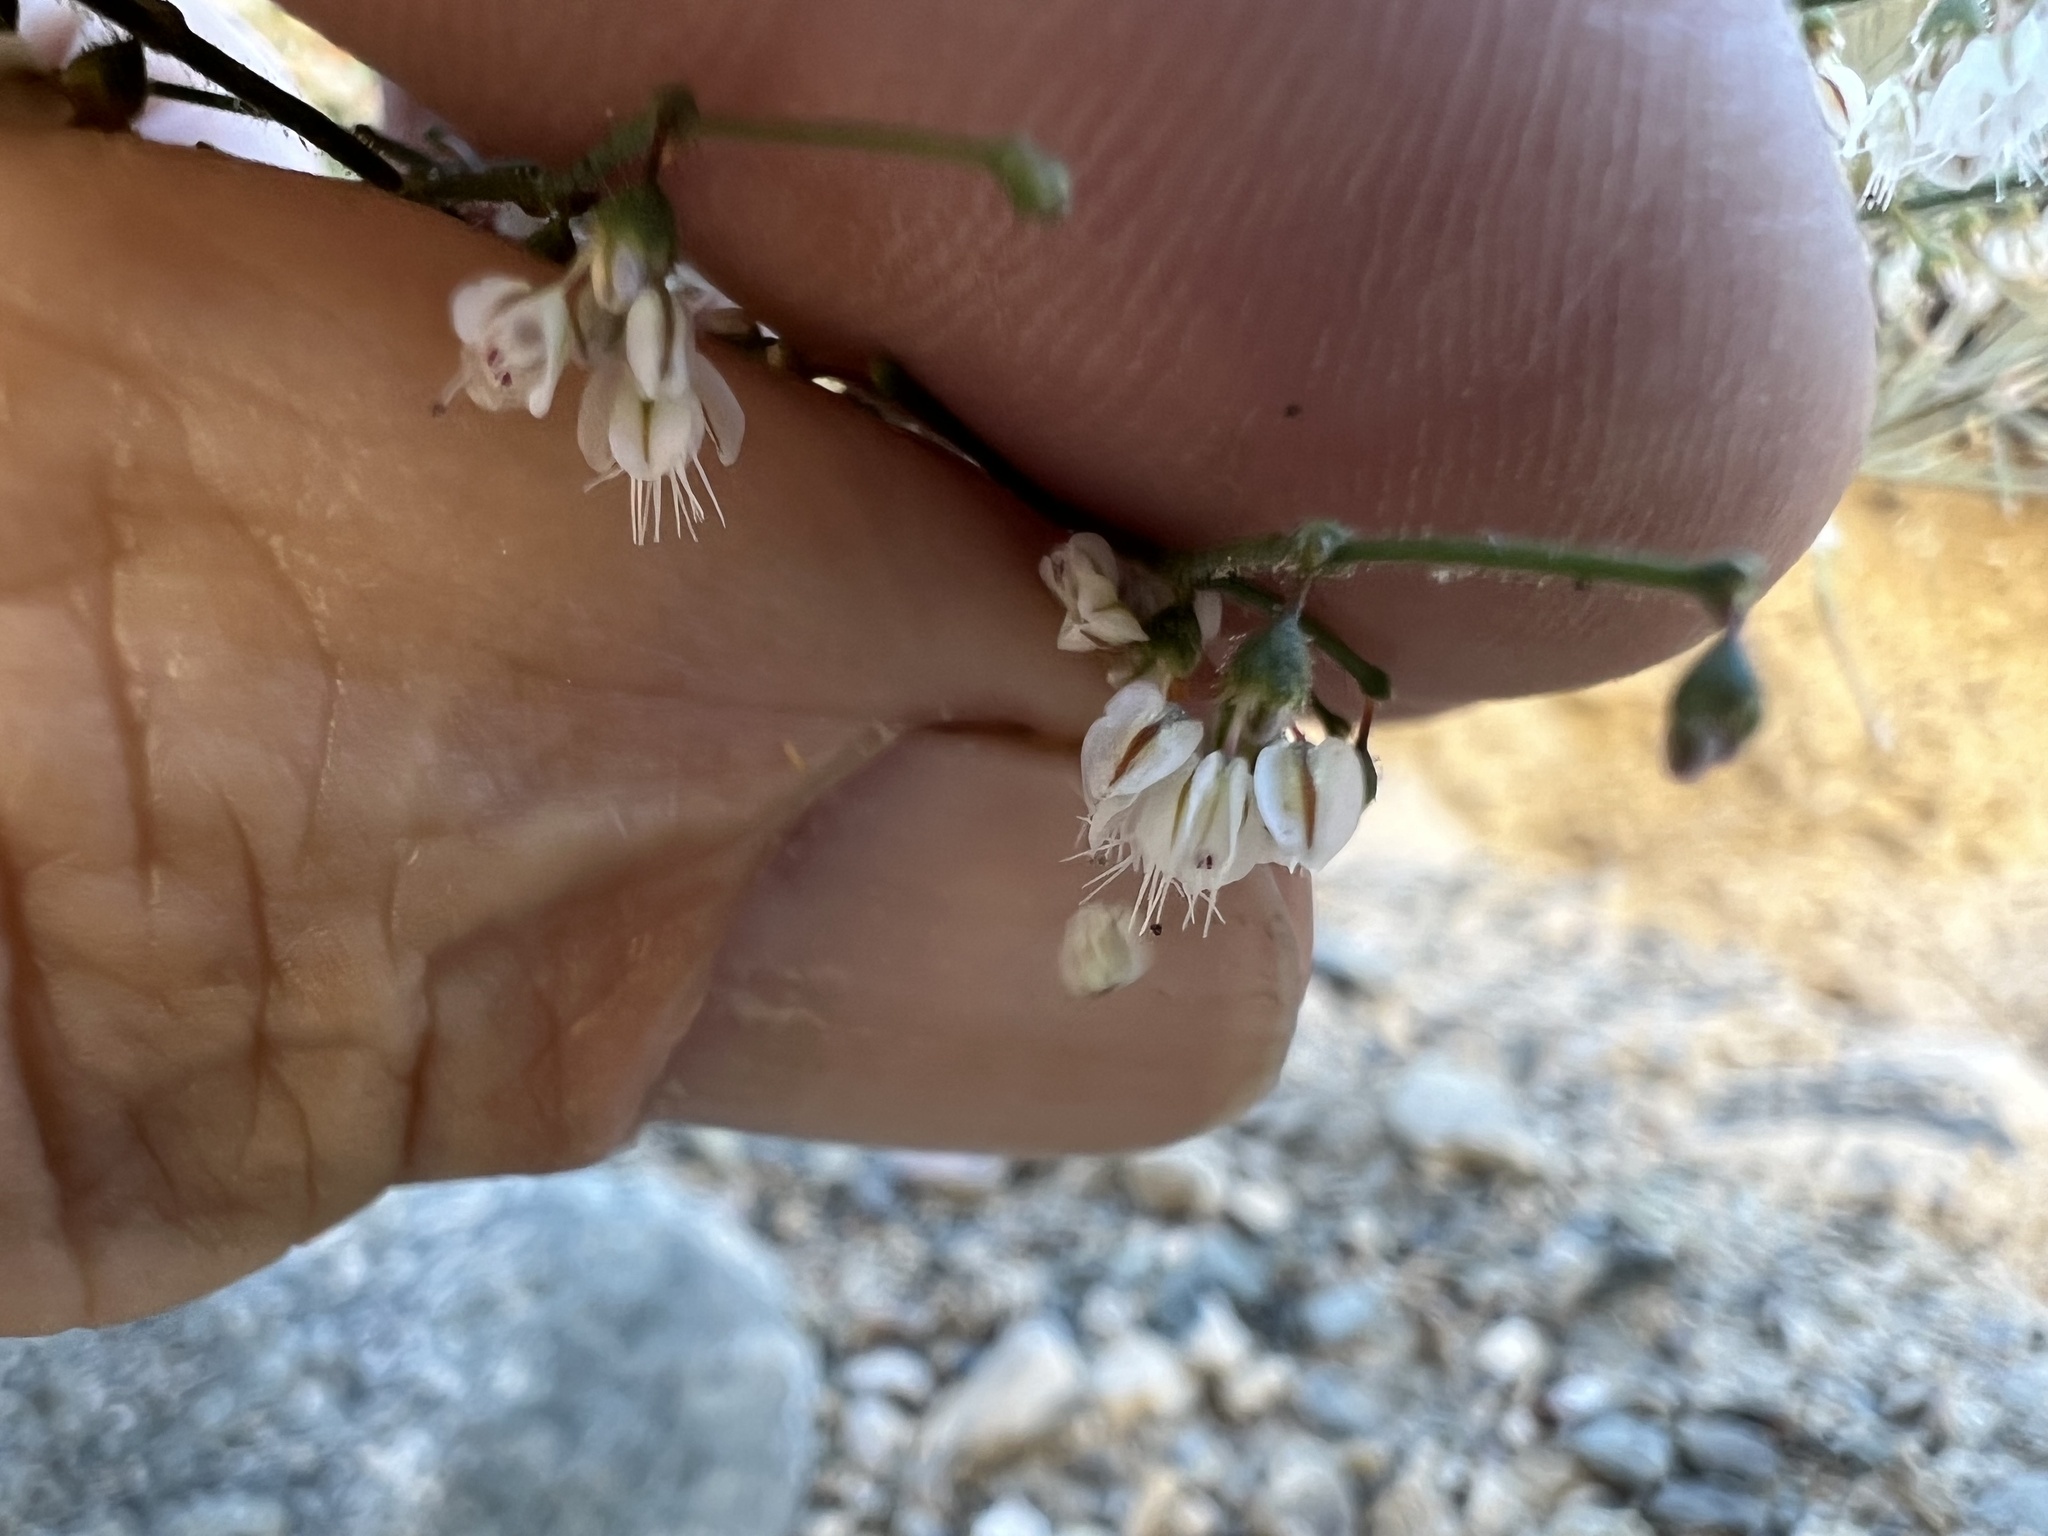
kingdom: Plantae
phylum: Tracheophyta
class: Magnoliopsida
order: Caryophyllales
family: Polygonaceae
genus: Eriogonum
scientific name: Eriogonum brachypodum
